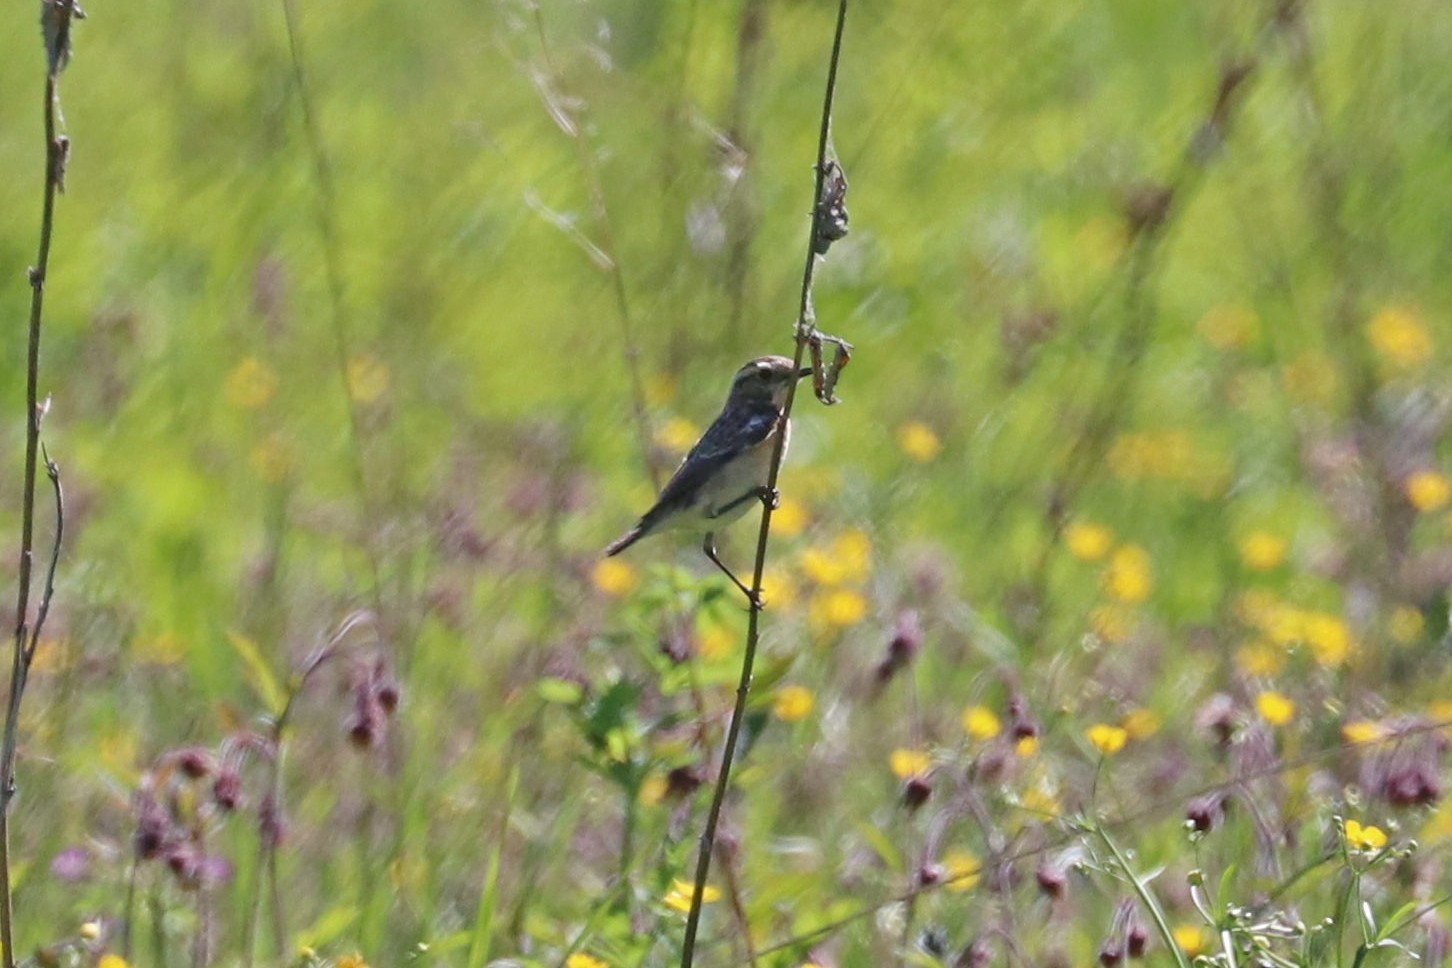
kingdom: Animalia
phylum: Chordata
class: Aves
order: Passeriformes
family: Muscicapidae
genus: Saxicola
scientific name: Saxicola rubetra
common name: Whinchat
